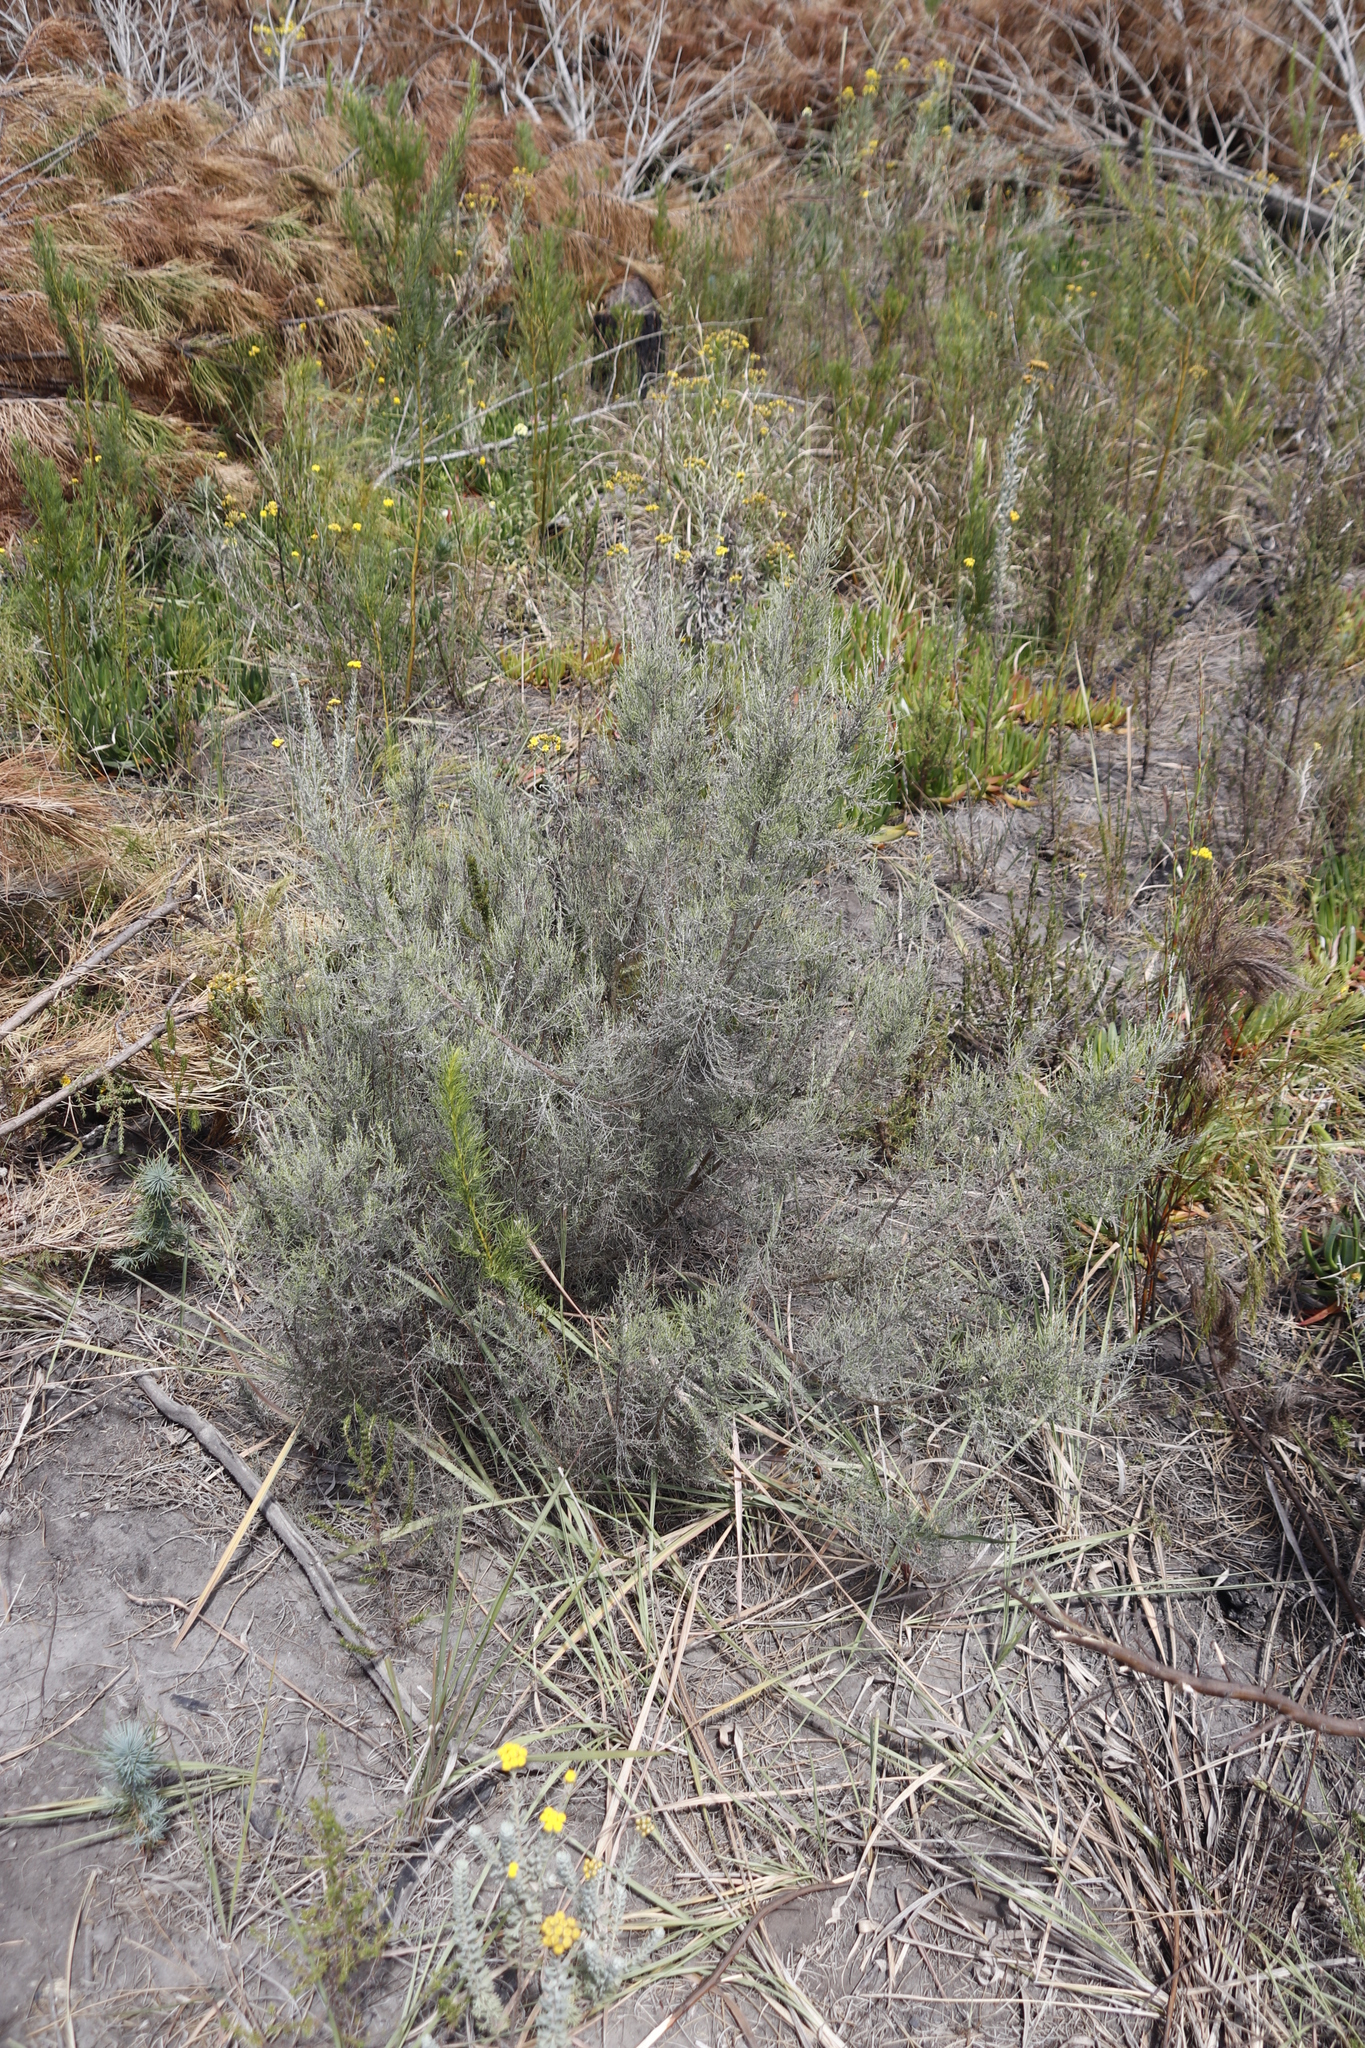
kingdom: Plantae
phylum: Tracheophyta
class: Magnoliopsida
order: Asterales
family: Asteraceae
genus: Dicerothamnus
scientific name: Dicerothamnus rhinocerotis
